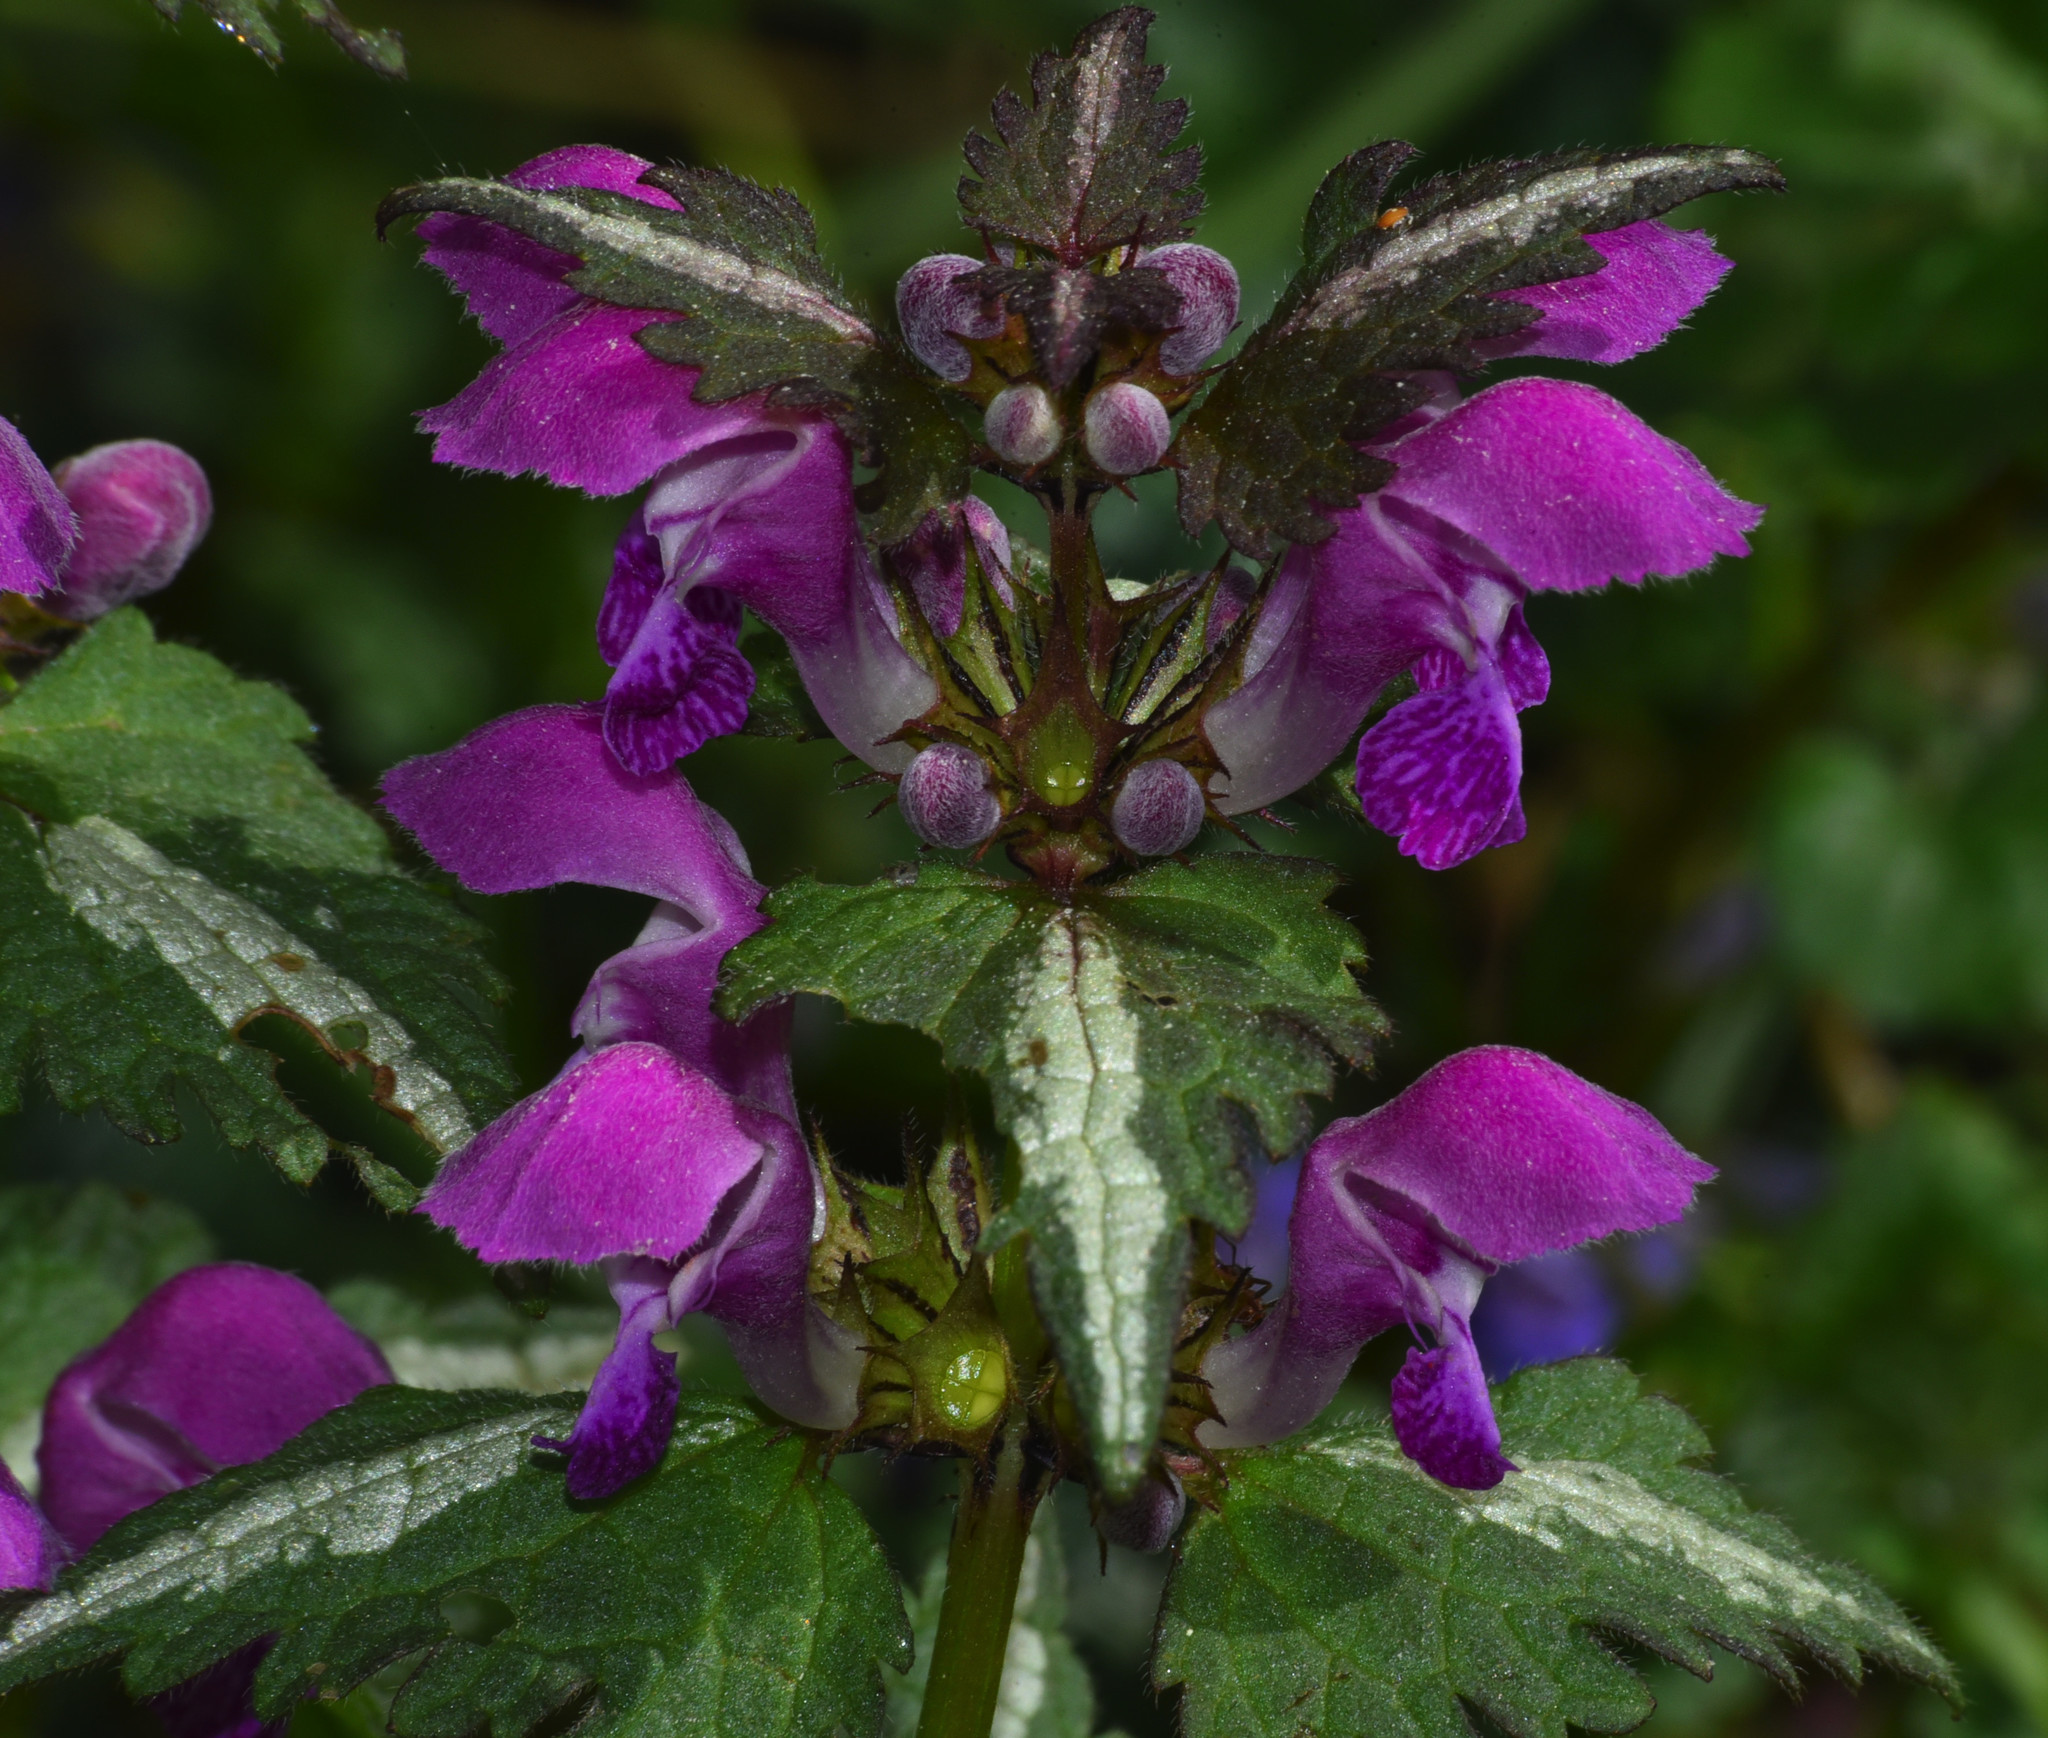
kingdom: Plantae
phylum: Tracheophyta
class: Magnoliopsida
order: Lamiales
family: Lamiaceae
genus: Lamium
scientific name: Lamium maculatum
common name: Spotted dead-nettle
